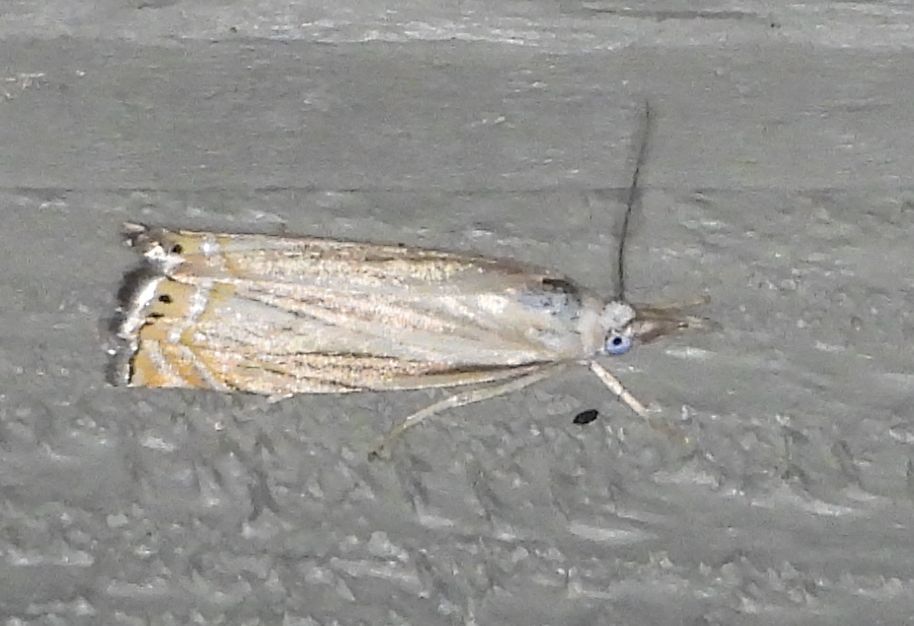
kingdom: Animalia
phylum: Arthropoda
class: Insecta
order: Lepidoptera
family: Crambidae
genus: Chrysoteuchia
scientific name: Chrysoteuchia topiarius
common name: Topiary grass-veneer
